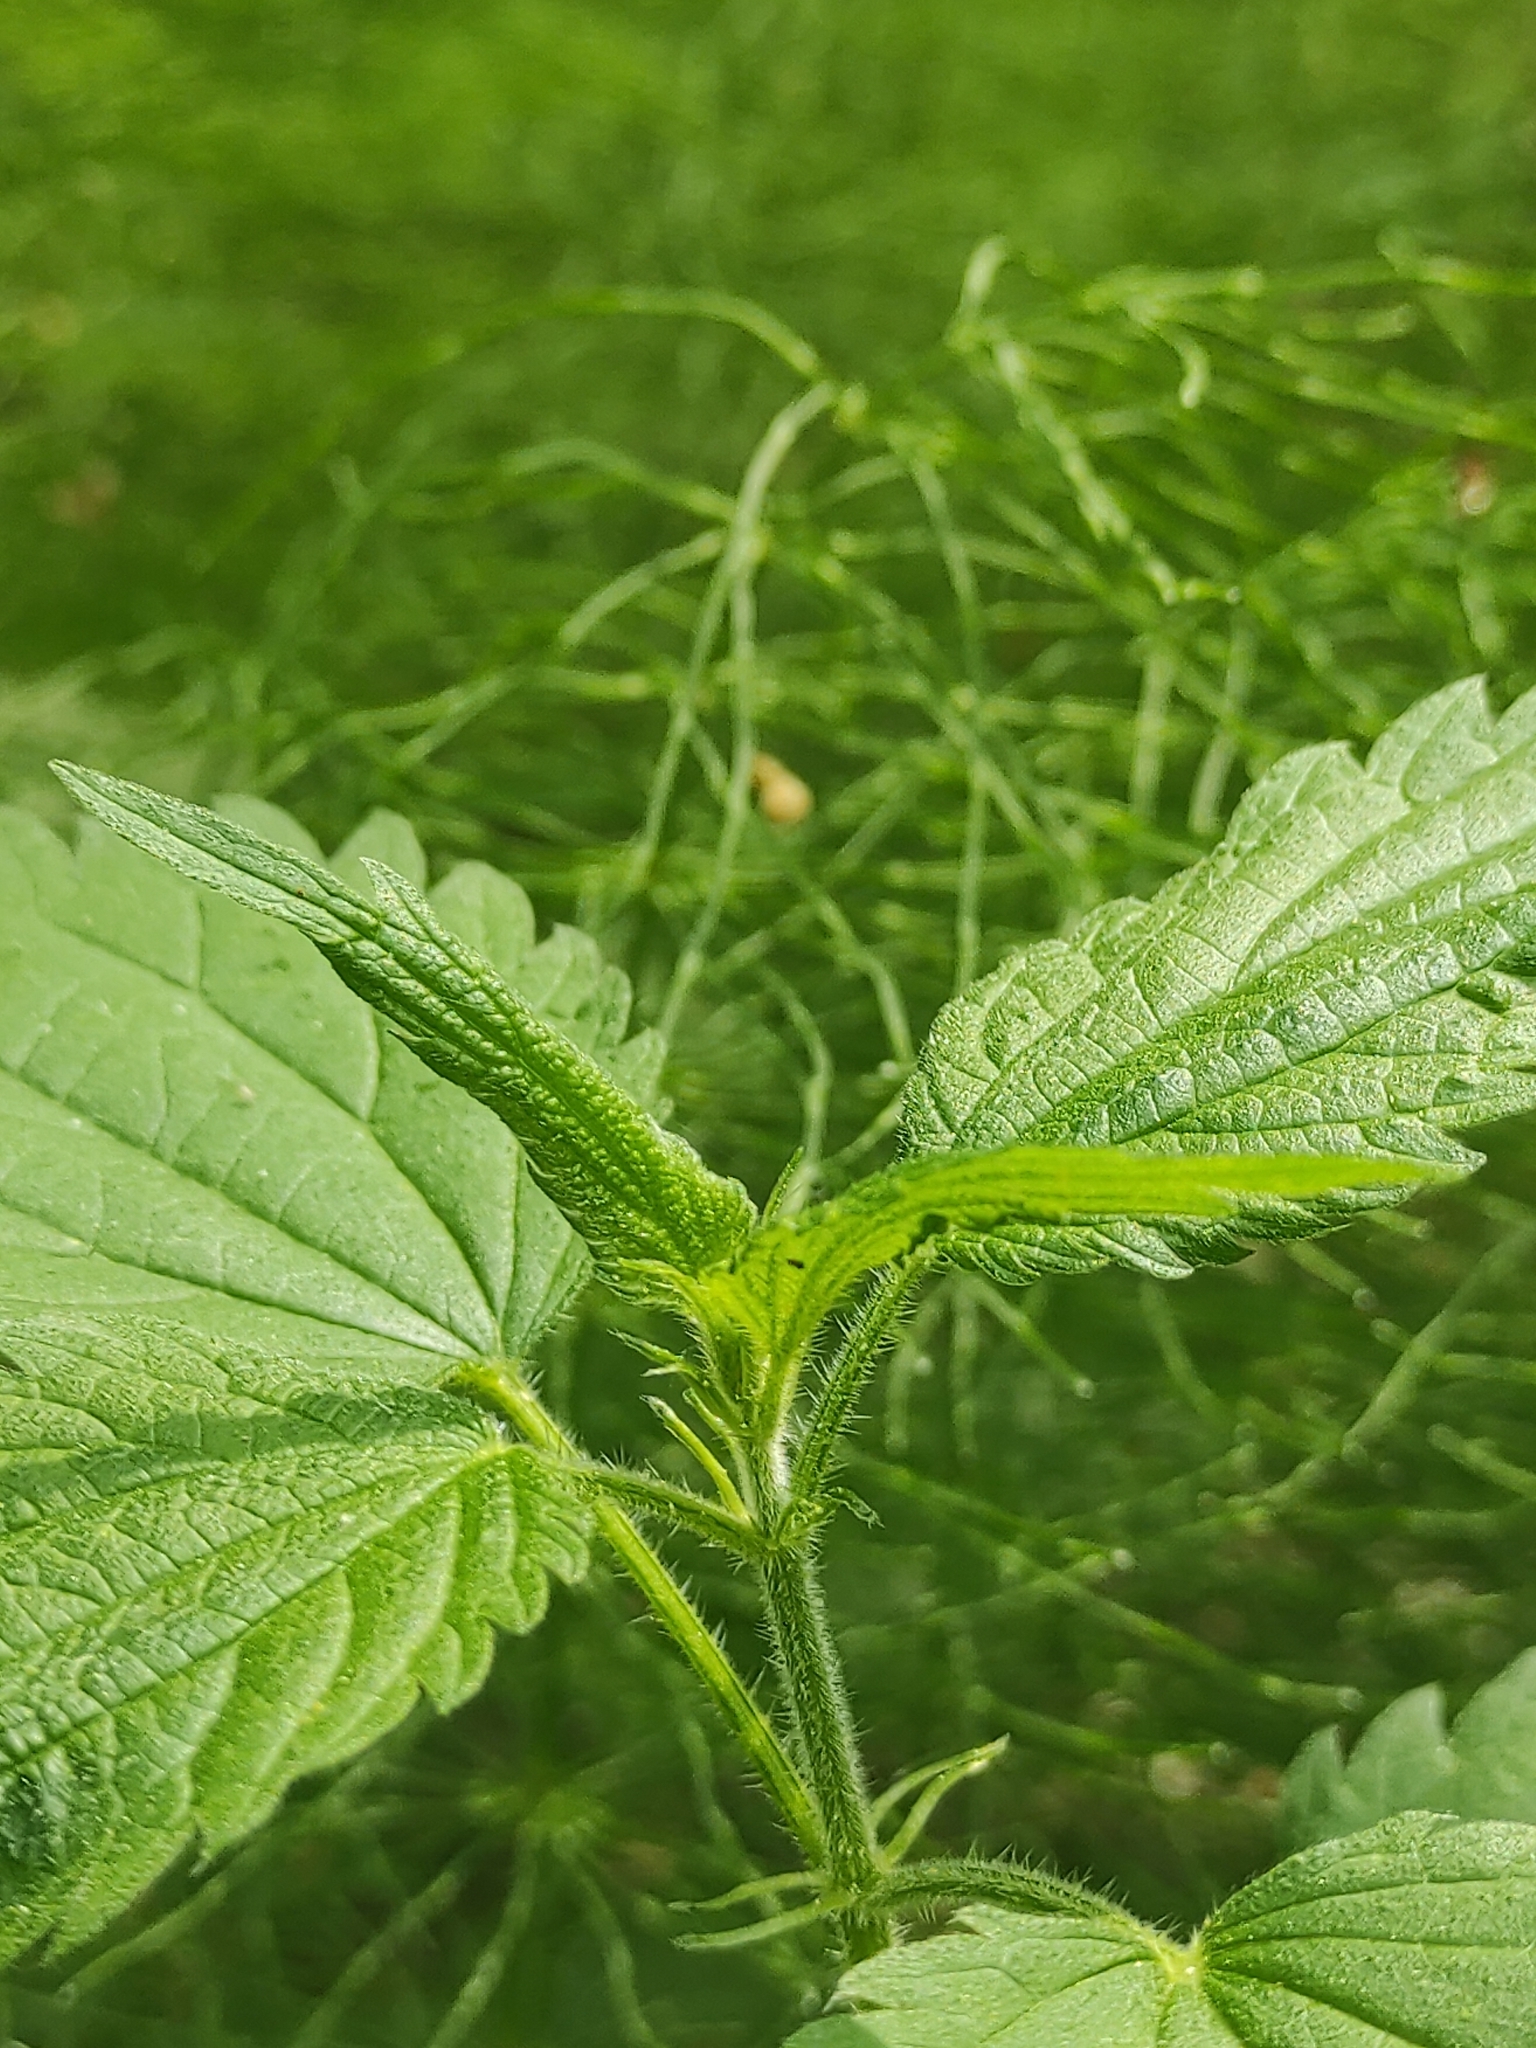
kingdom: Plantae
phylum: Tracheophyta
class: Magnoliopsida
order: Rosales
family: Urticaceae
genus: Urtica
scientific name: Urtica dioica
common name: Common nettle
